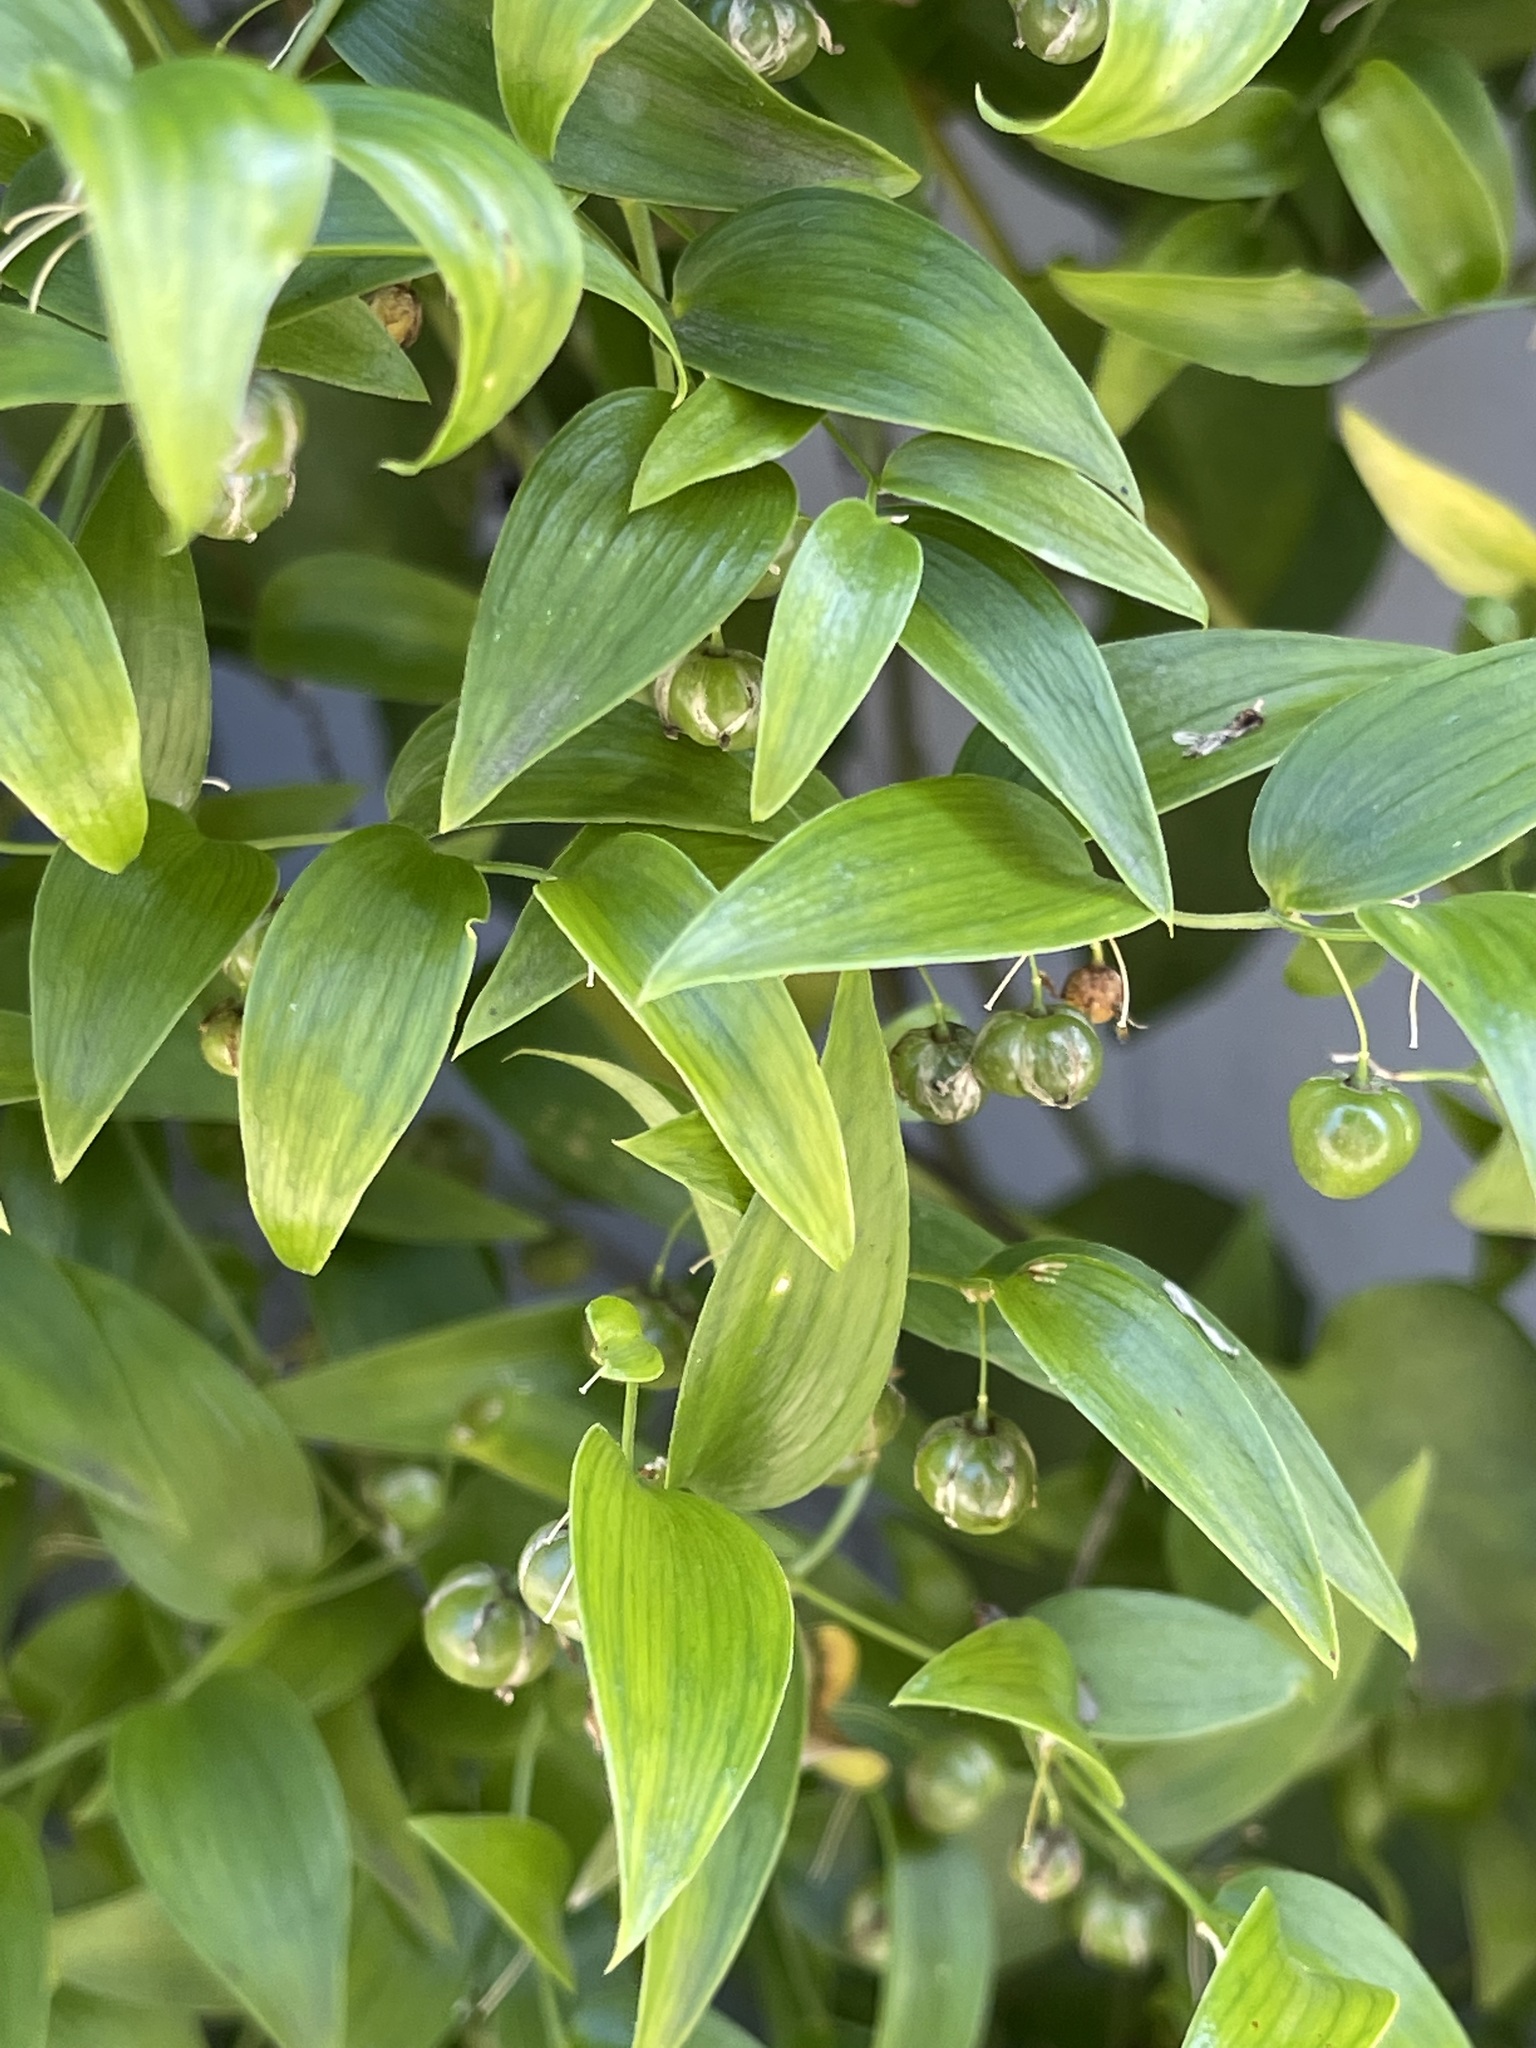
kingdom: Plantae
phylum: Tracheophyta
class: Liliopsida
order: Asparagales
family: Asparagaceae
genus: Asparagus
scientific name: Asparagus asparagoides
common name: African asparagus fern
